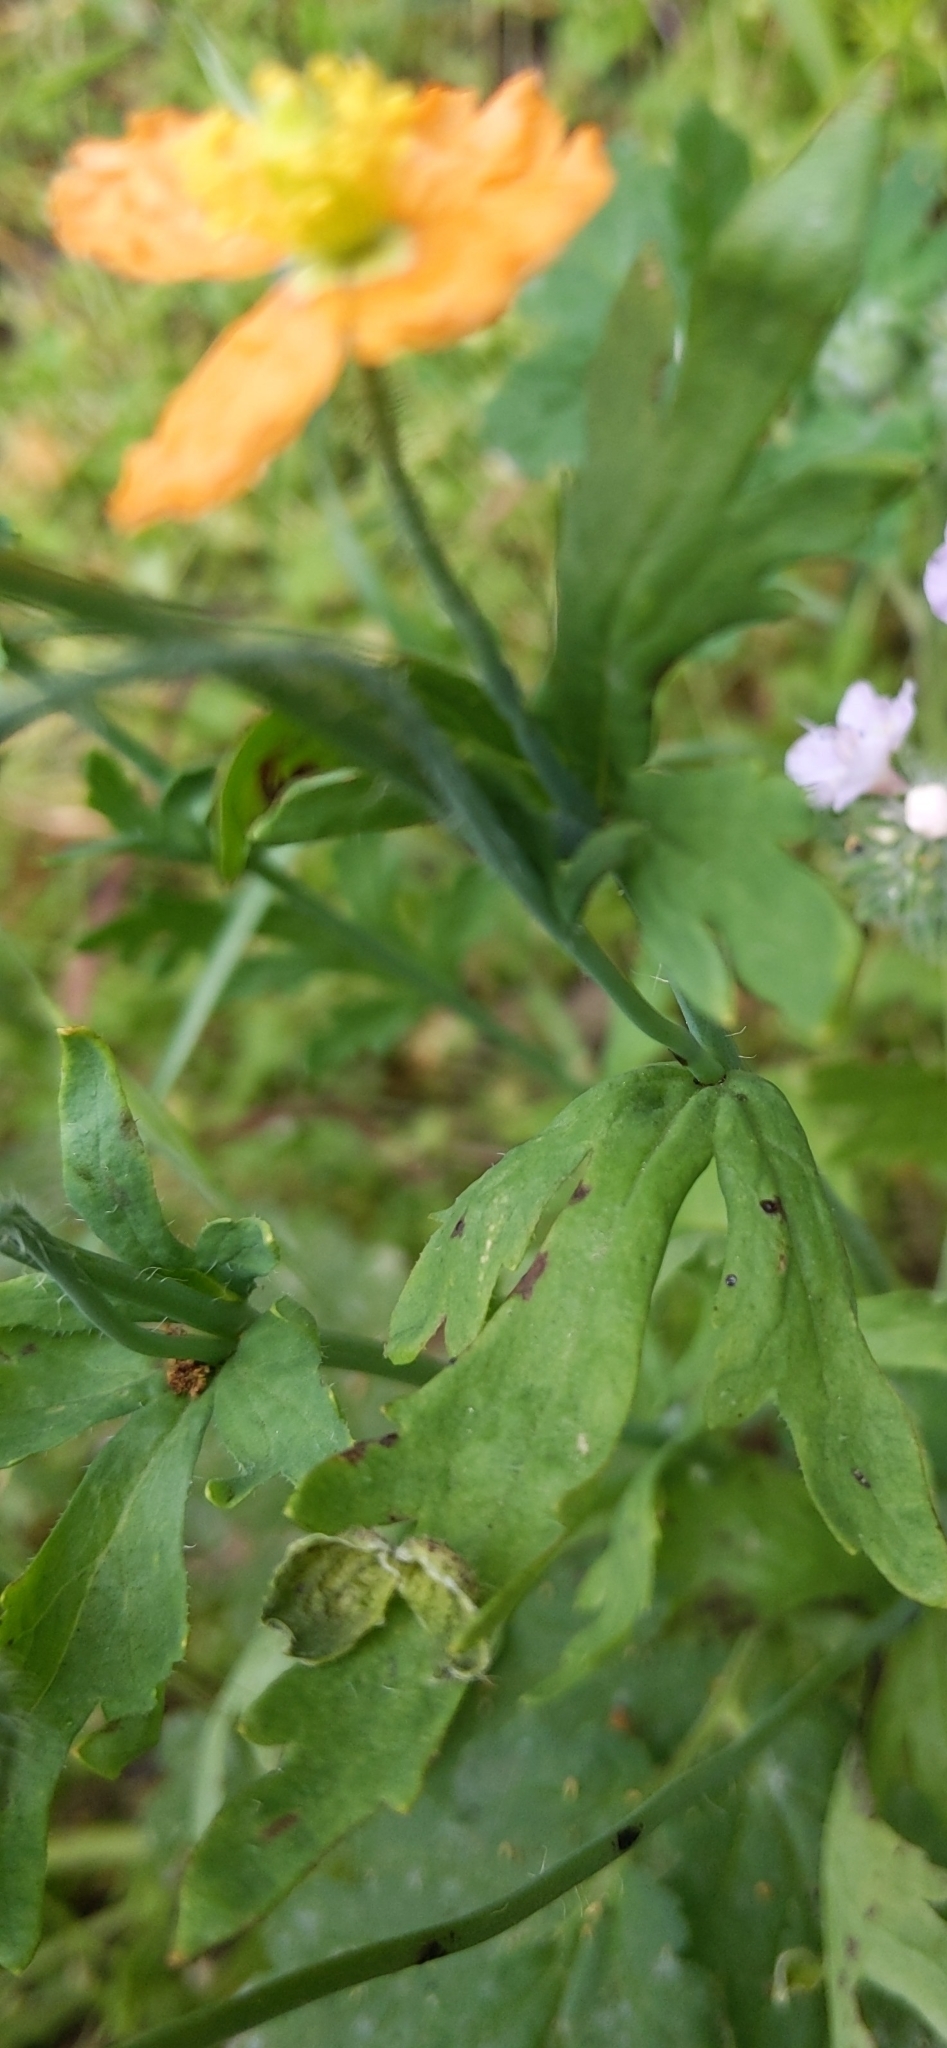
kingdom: Plantae
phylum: Tracheophyta
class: Magnoliopsida
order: Ranunculales
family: Papaveraceae
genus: Papaver
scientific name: Papaver californicum
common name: Fire poppy
